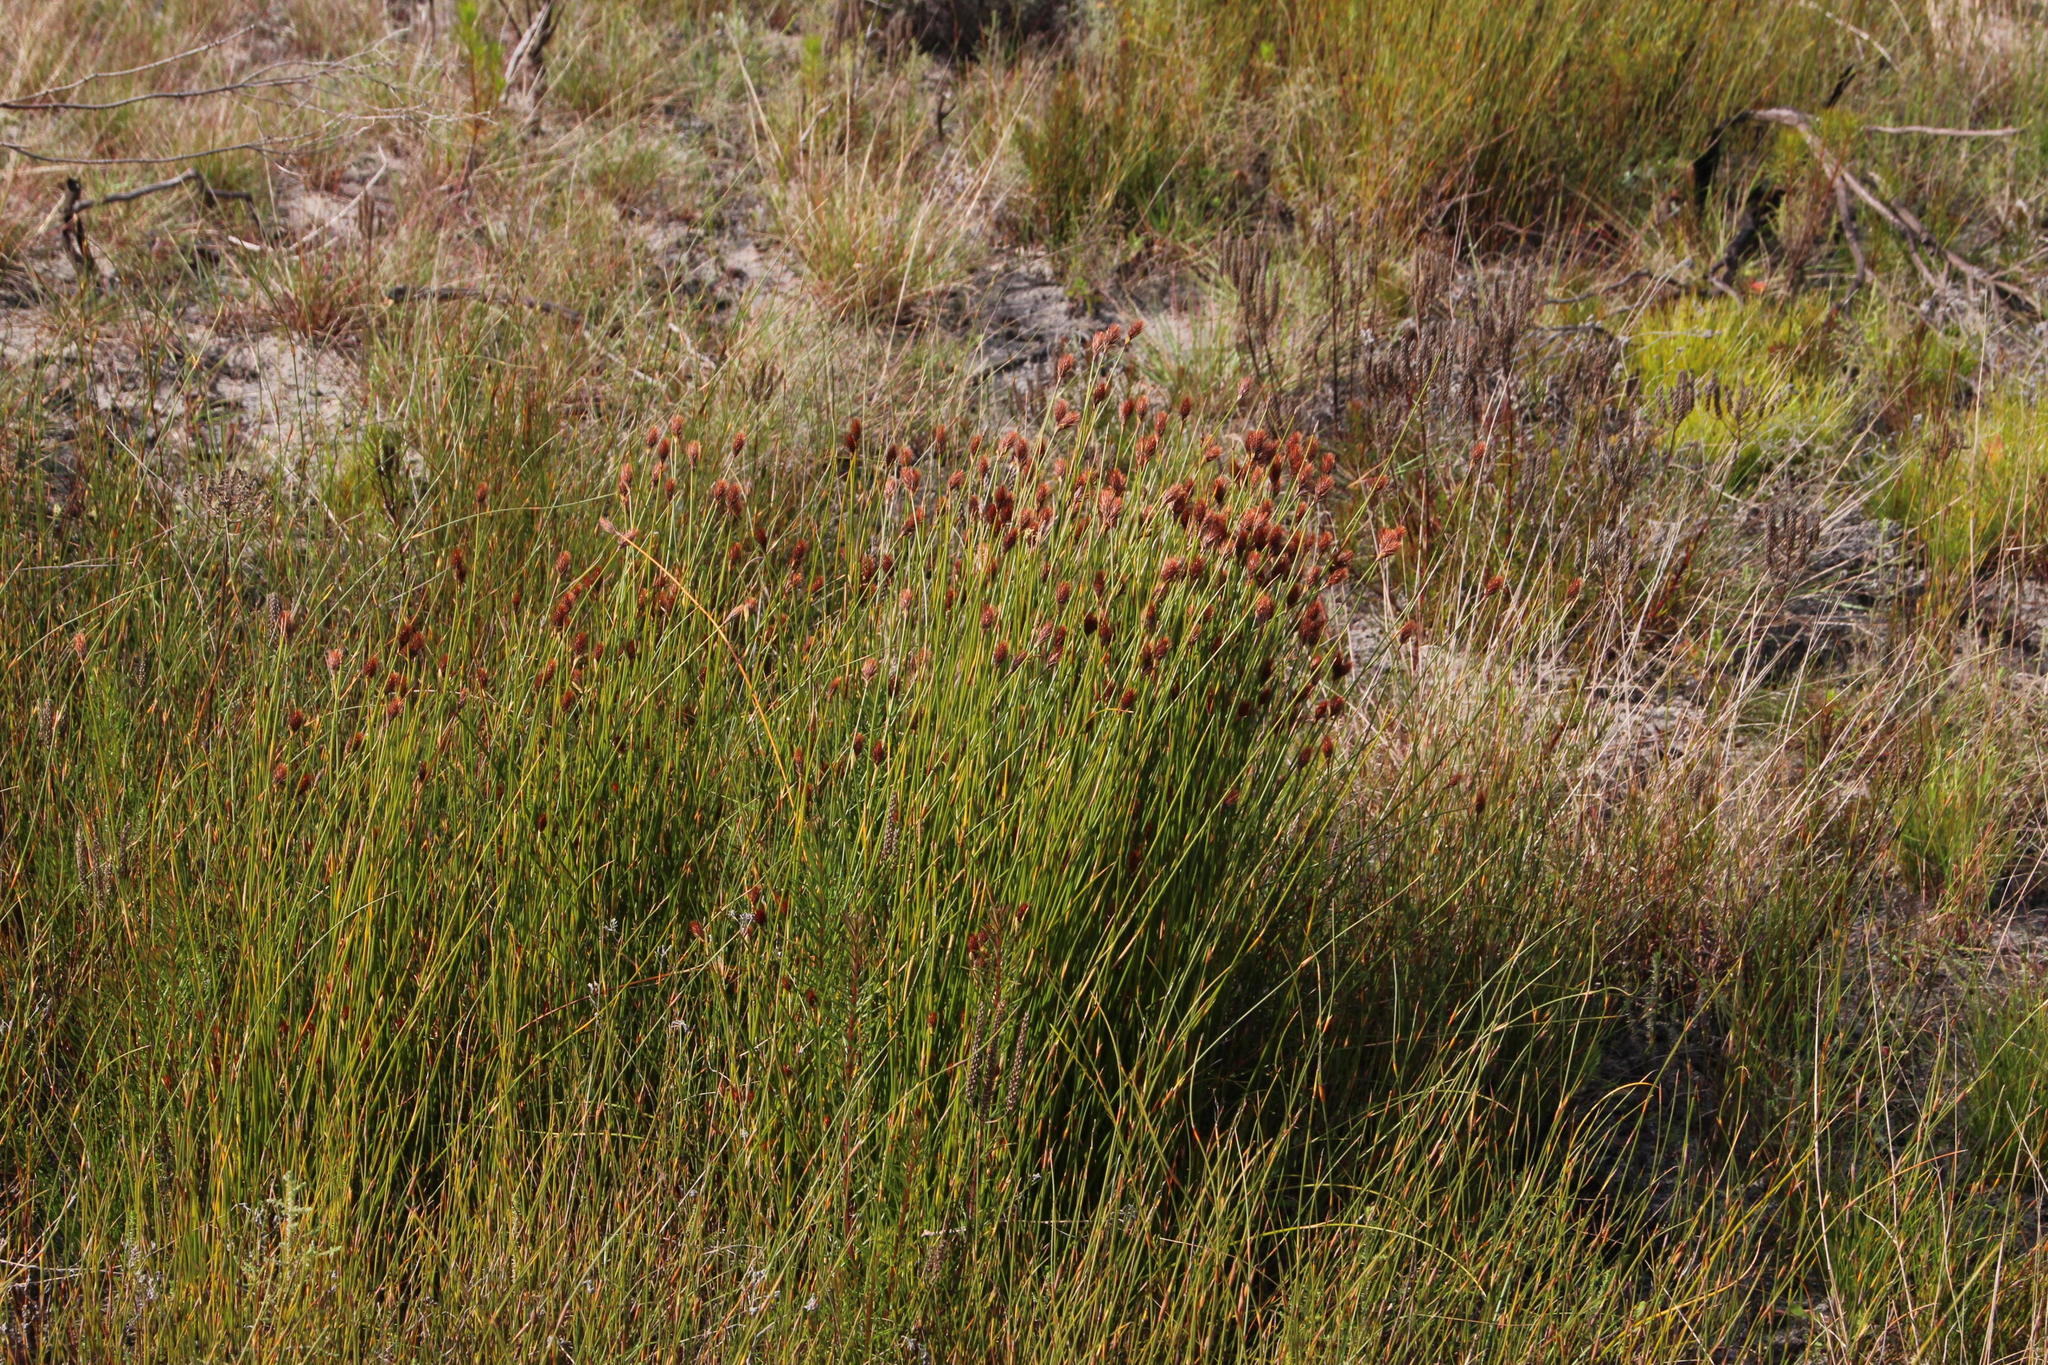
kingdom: Plantae
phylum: Tracheophyta
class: Liliopsida
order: Poales
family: Restionaceae
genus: Hypodiscus
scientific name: Hypodiscus aristatus
